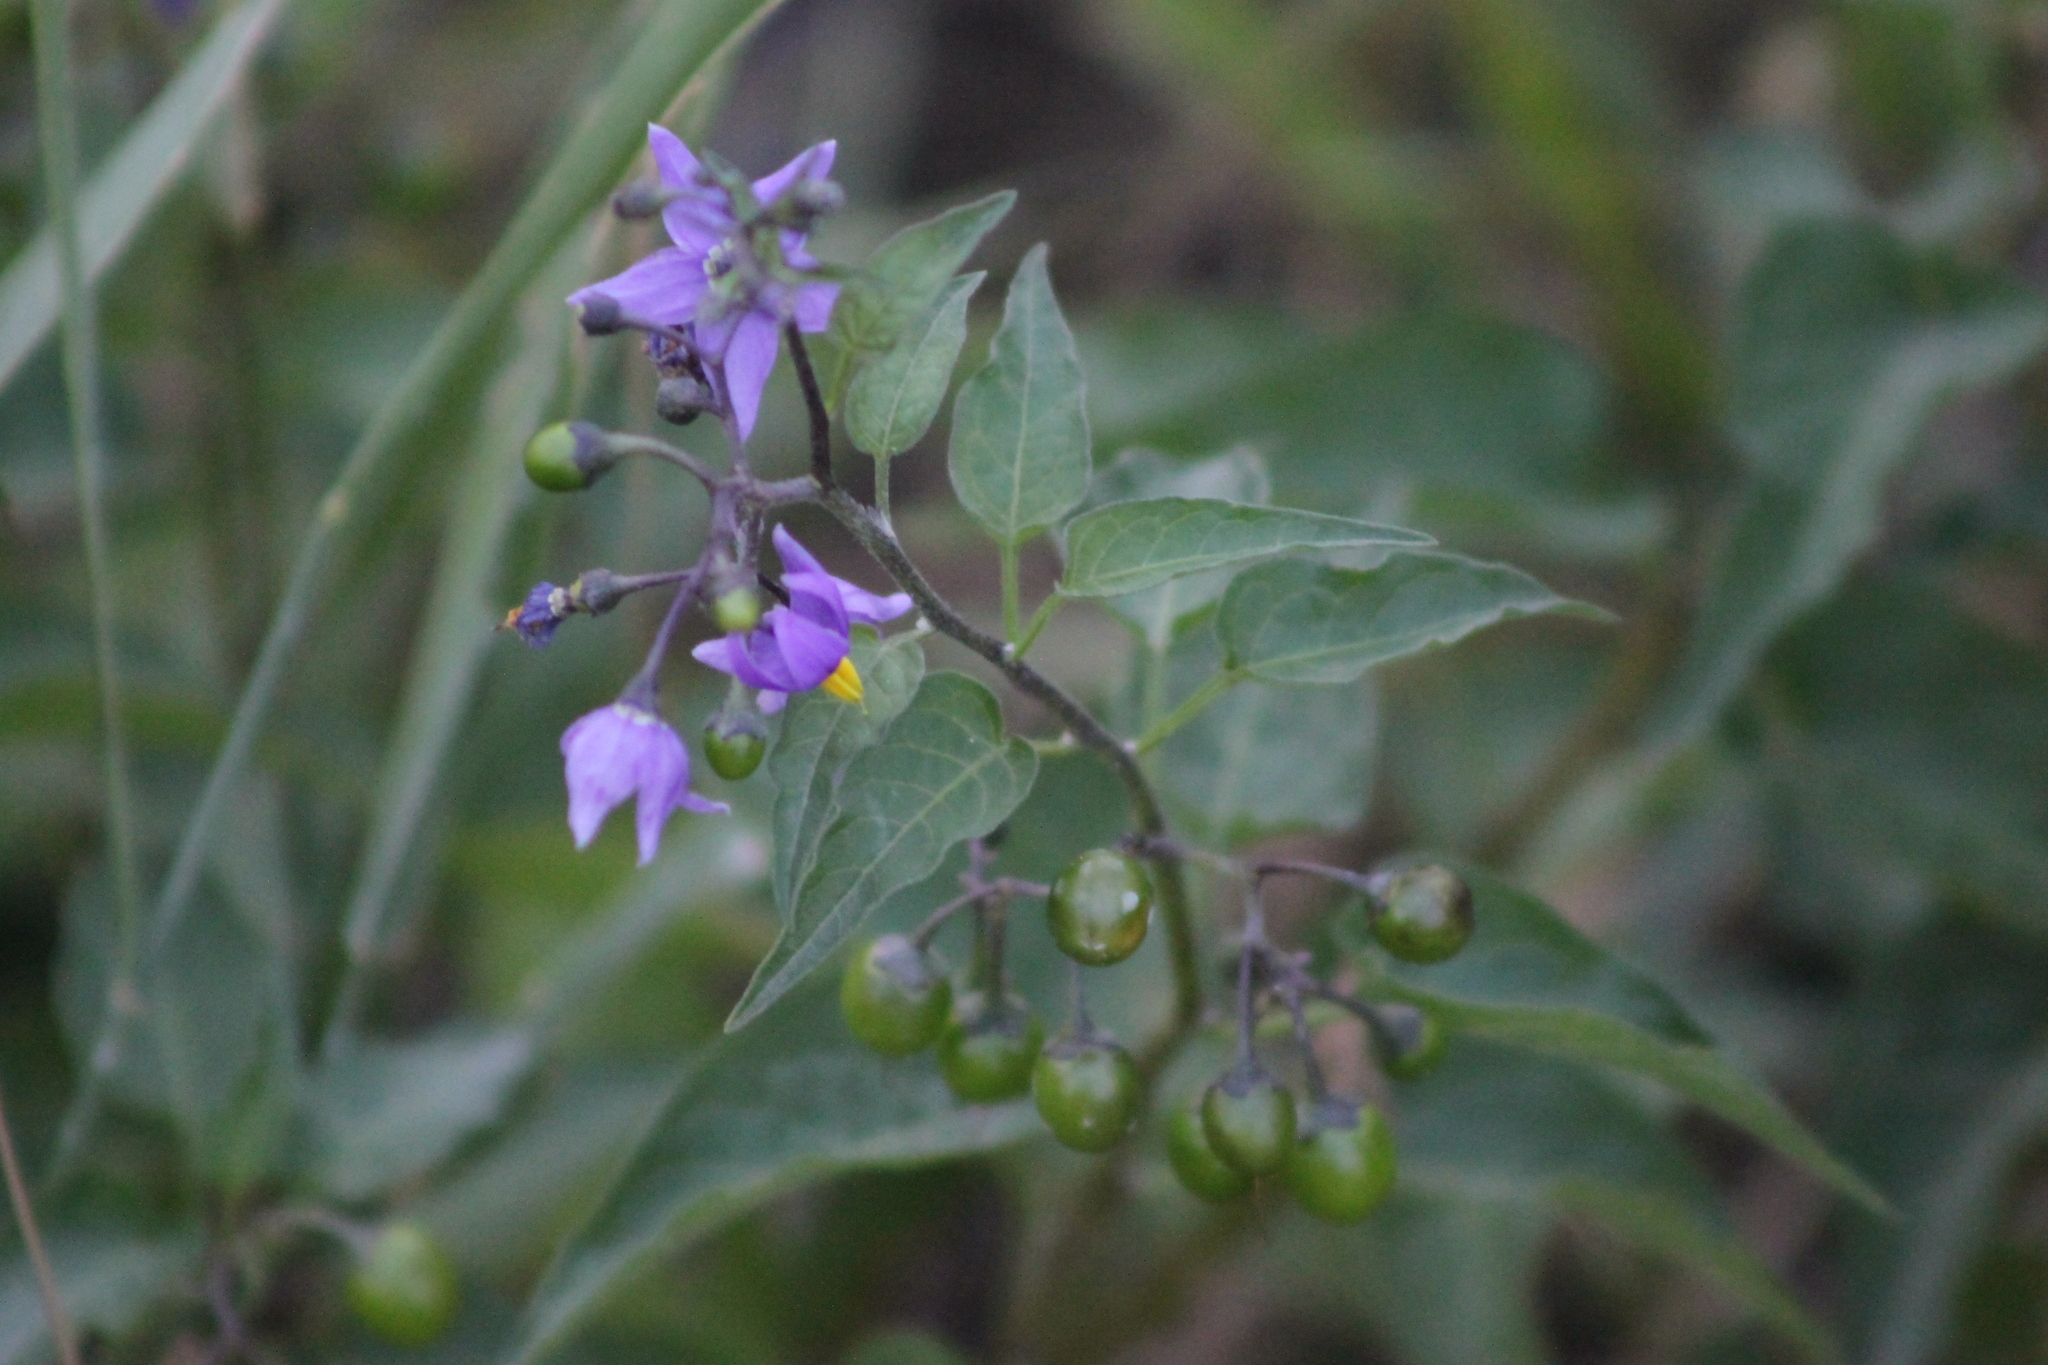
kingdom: Plantae
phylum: Tracheophyta
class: Magnoliopsida
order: Solanales
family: Solanaceae
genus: Solanum
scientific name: Solanum dulcamara
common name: Climbing nightshade
